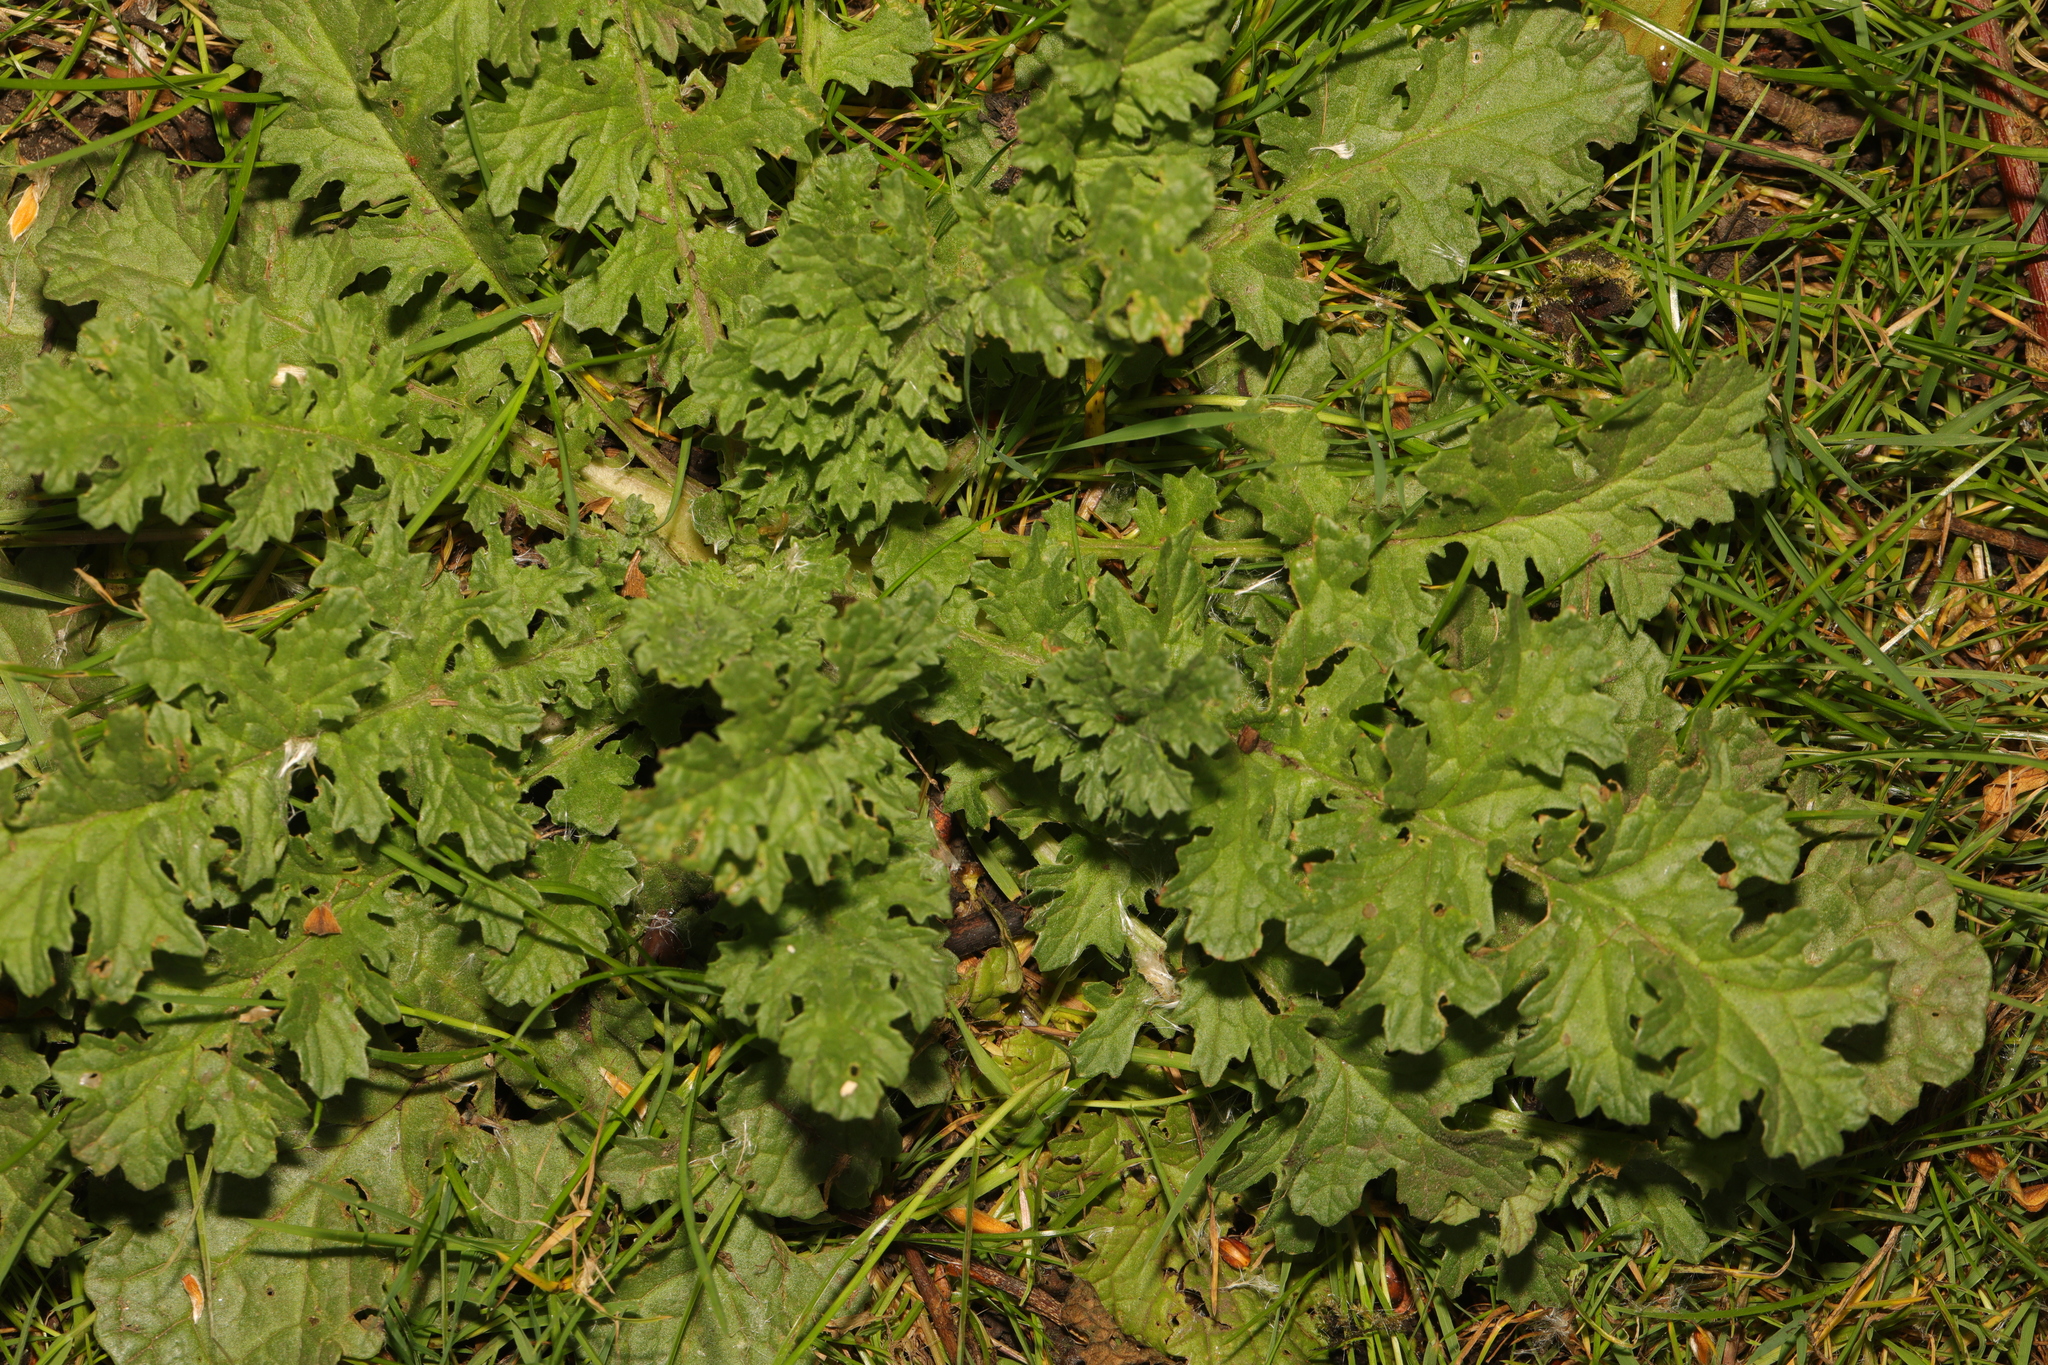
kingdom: Plantae
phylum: Tracheophyta
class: Magnoliopsida
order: Asterales
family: Asteraceae
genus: Jacobaea
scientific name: Jacobaea vulgaris
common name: Stinking willie
